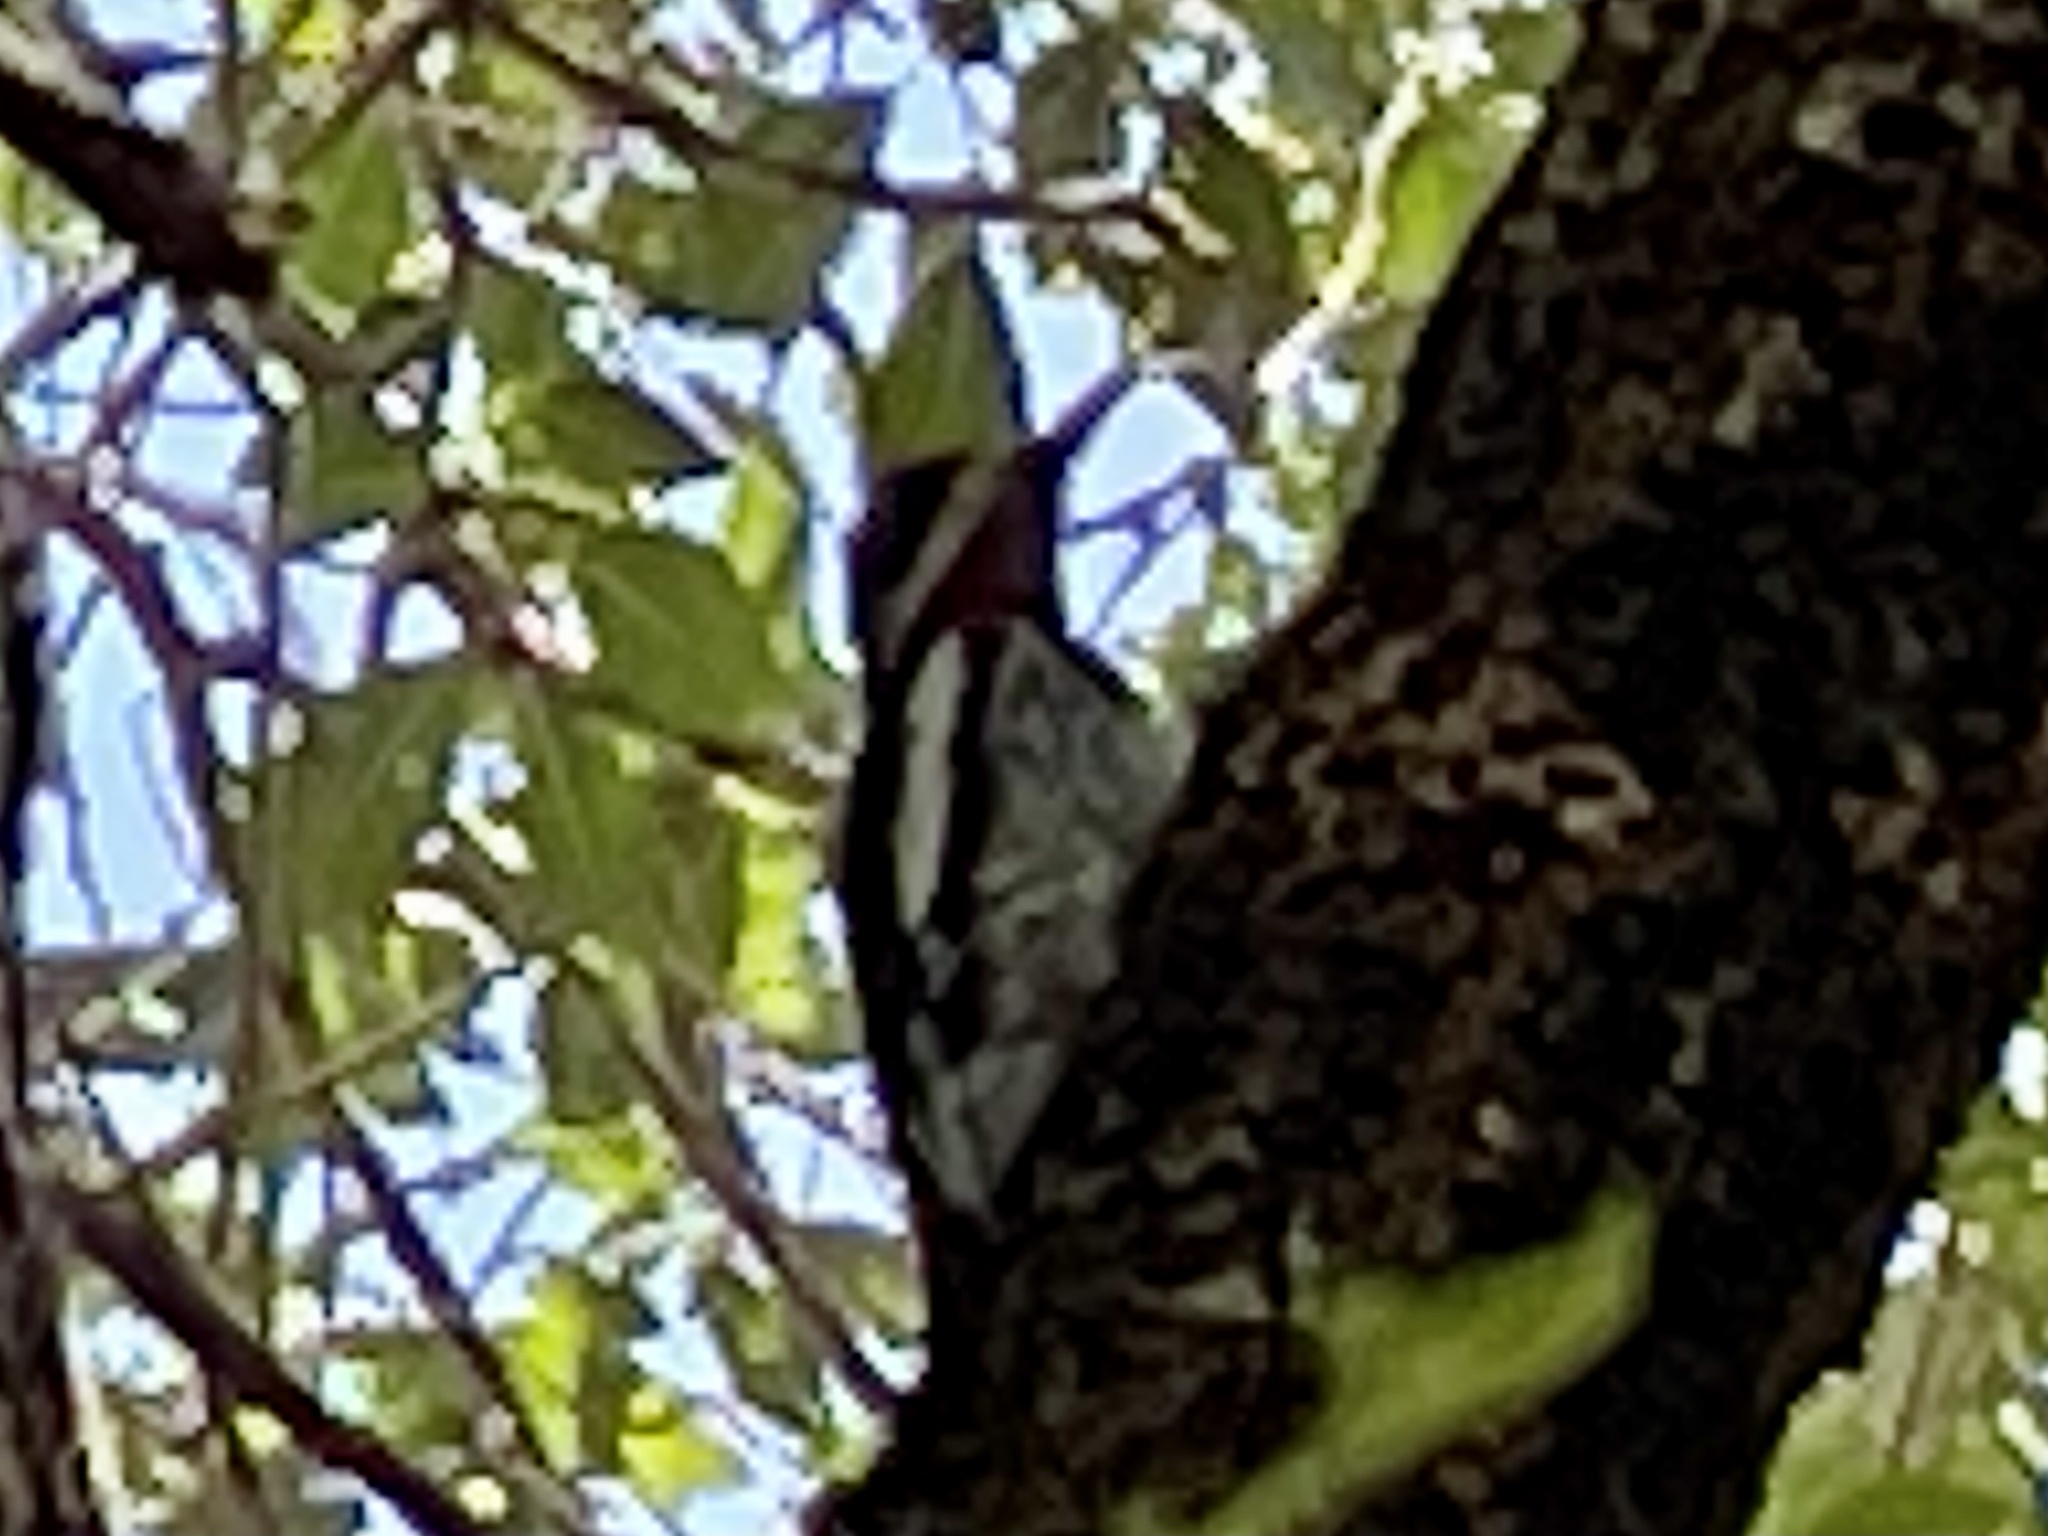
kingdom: Animalia
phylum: Chordata
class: Aves
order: Piciformes
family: Picidae
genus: Sphyrapicus
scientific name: Sphyrapicus nuchalis
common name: Red-naped sapsucker
